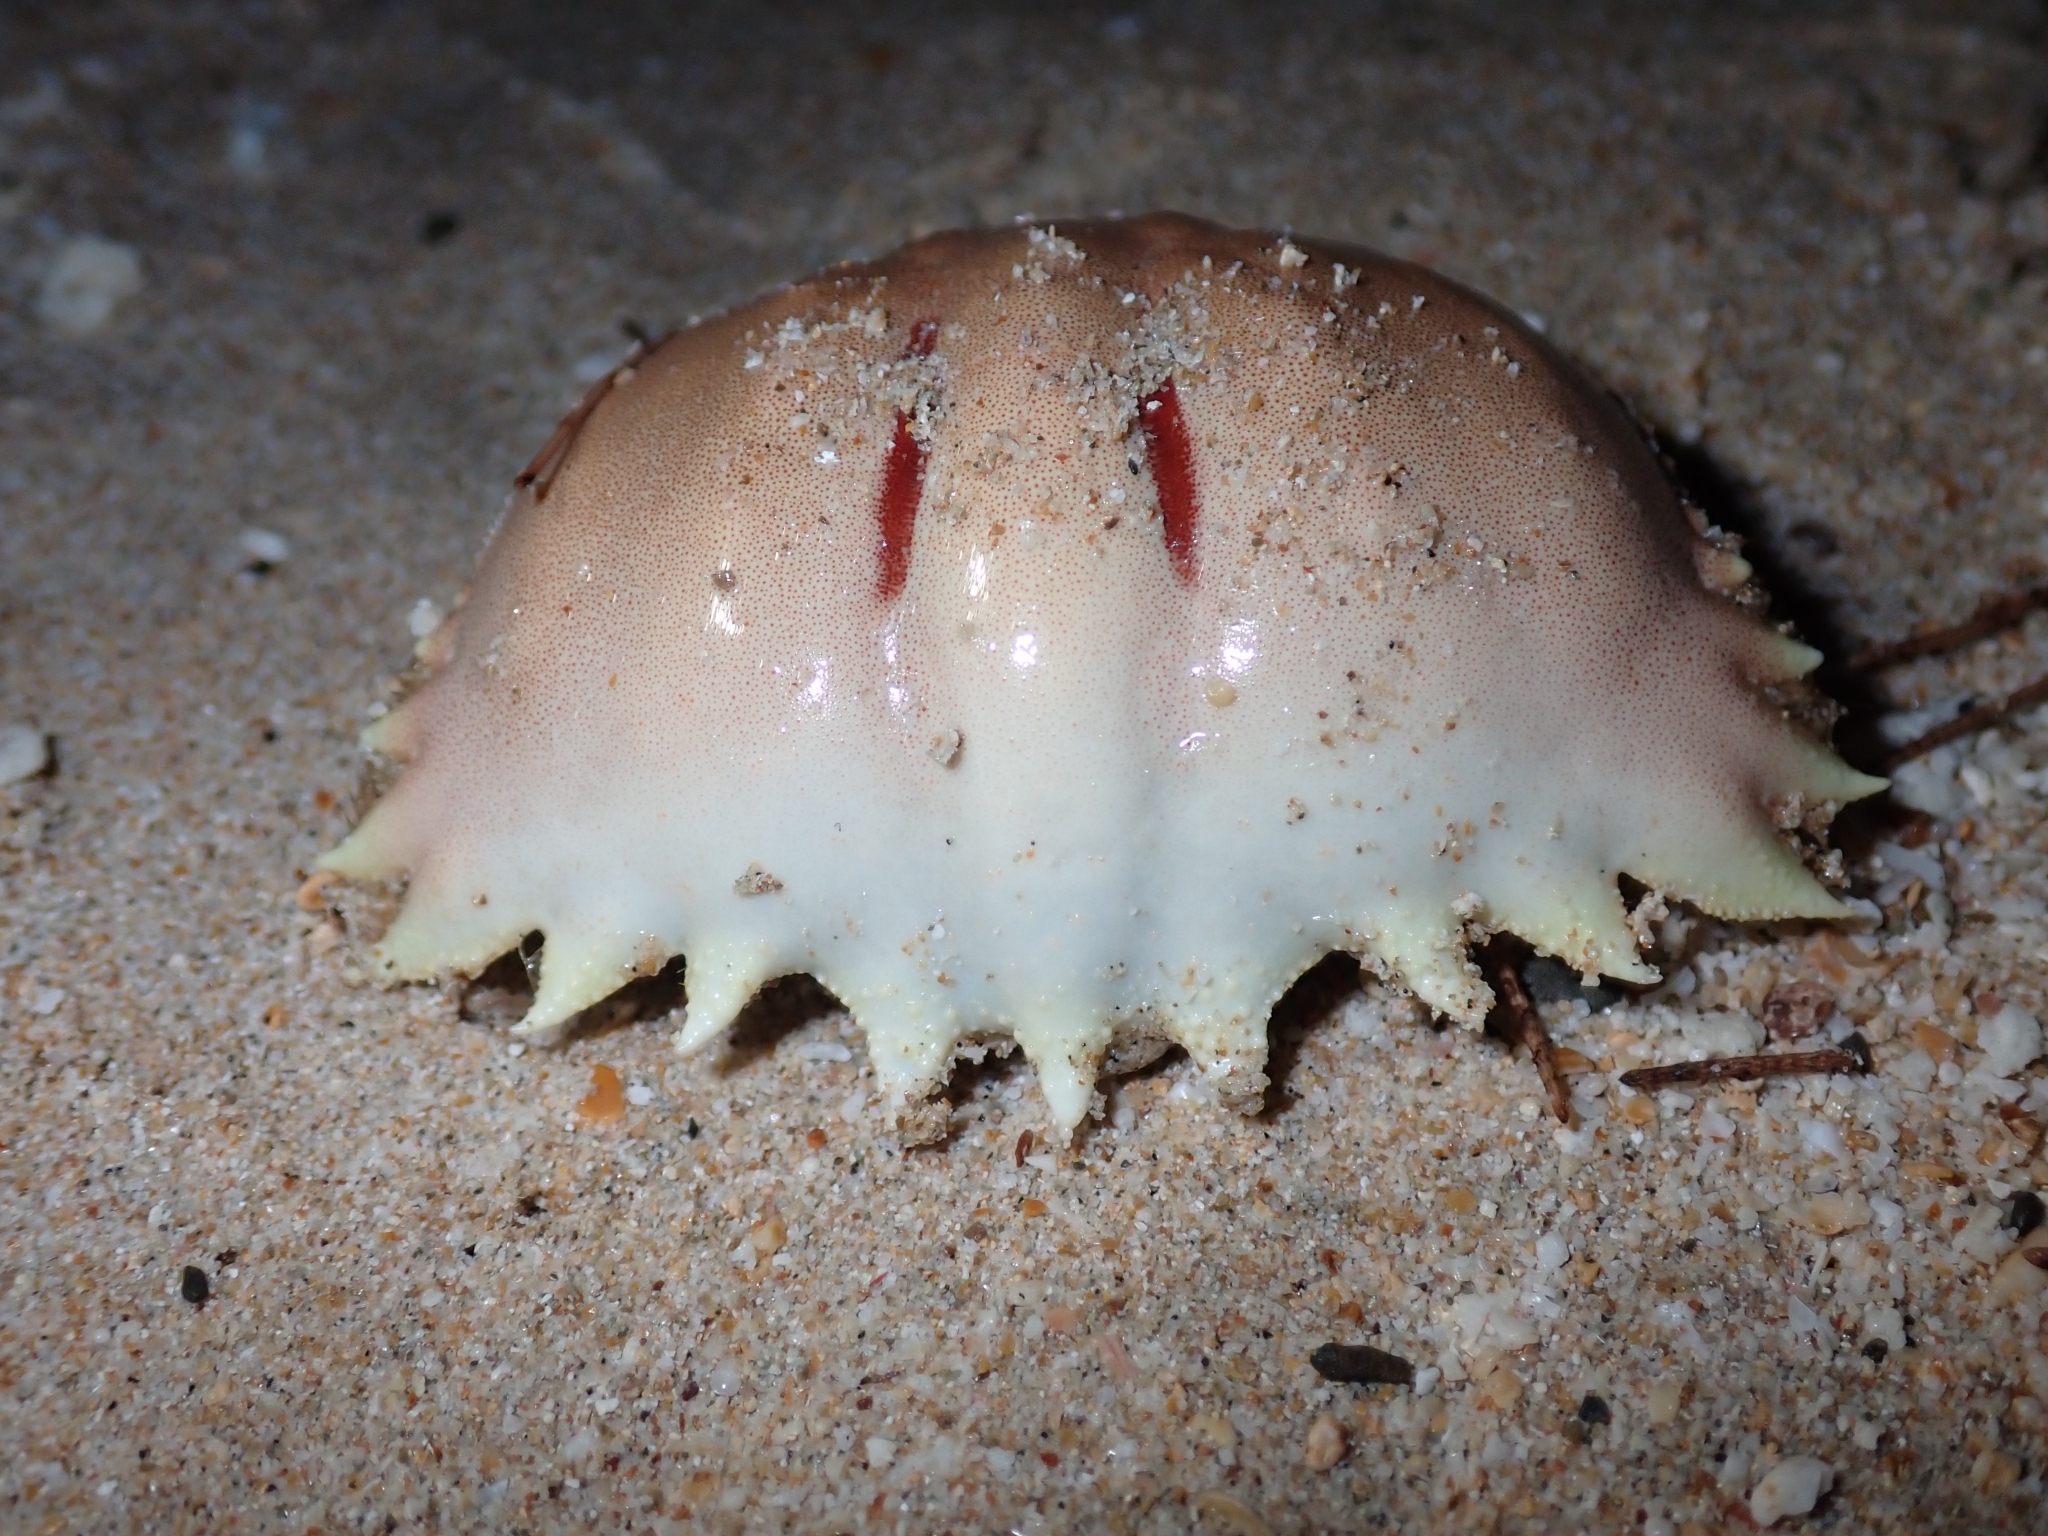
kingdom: Animalia
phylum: Arthropoda
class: Malacostraca
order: Decapoda
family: Calappidae
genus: Calappa
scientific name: Calappa bilineata
